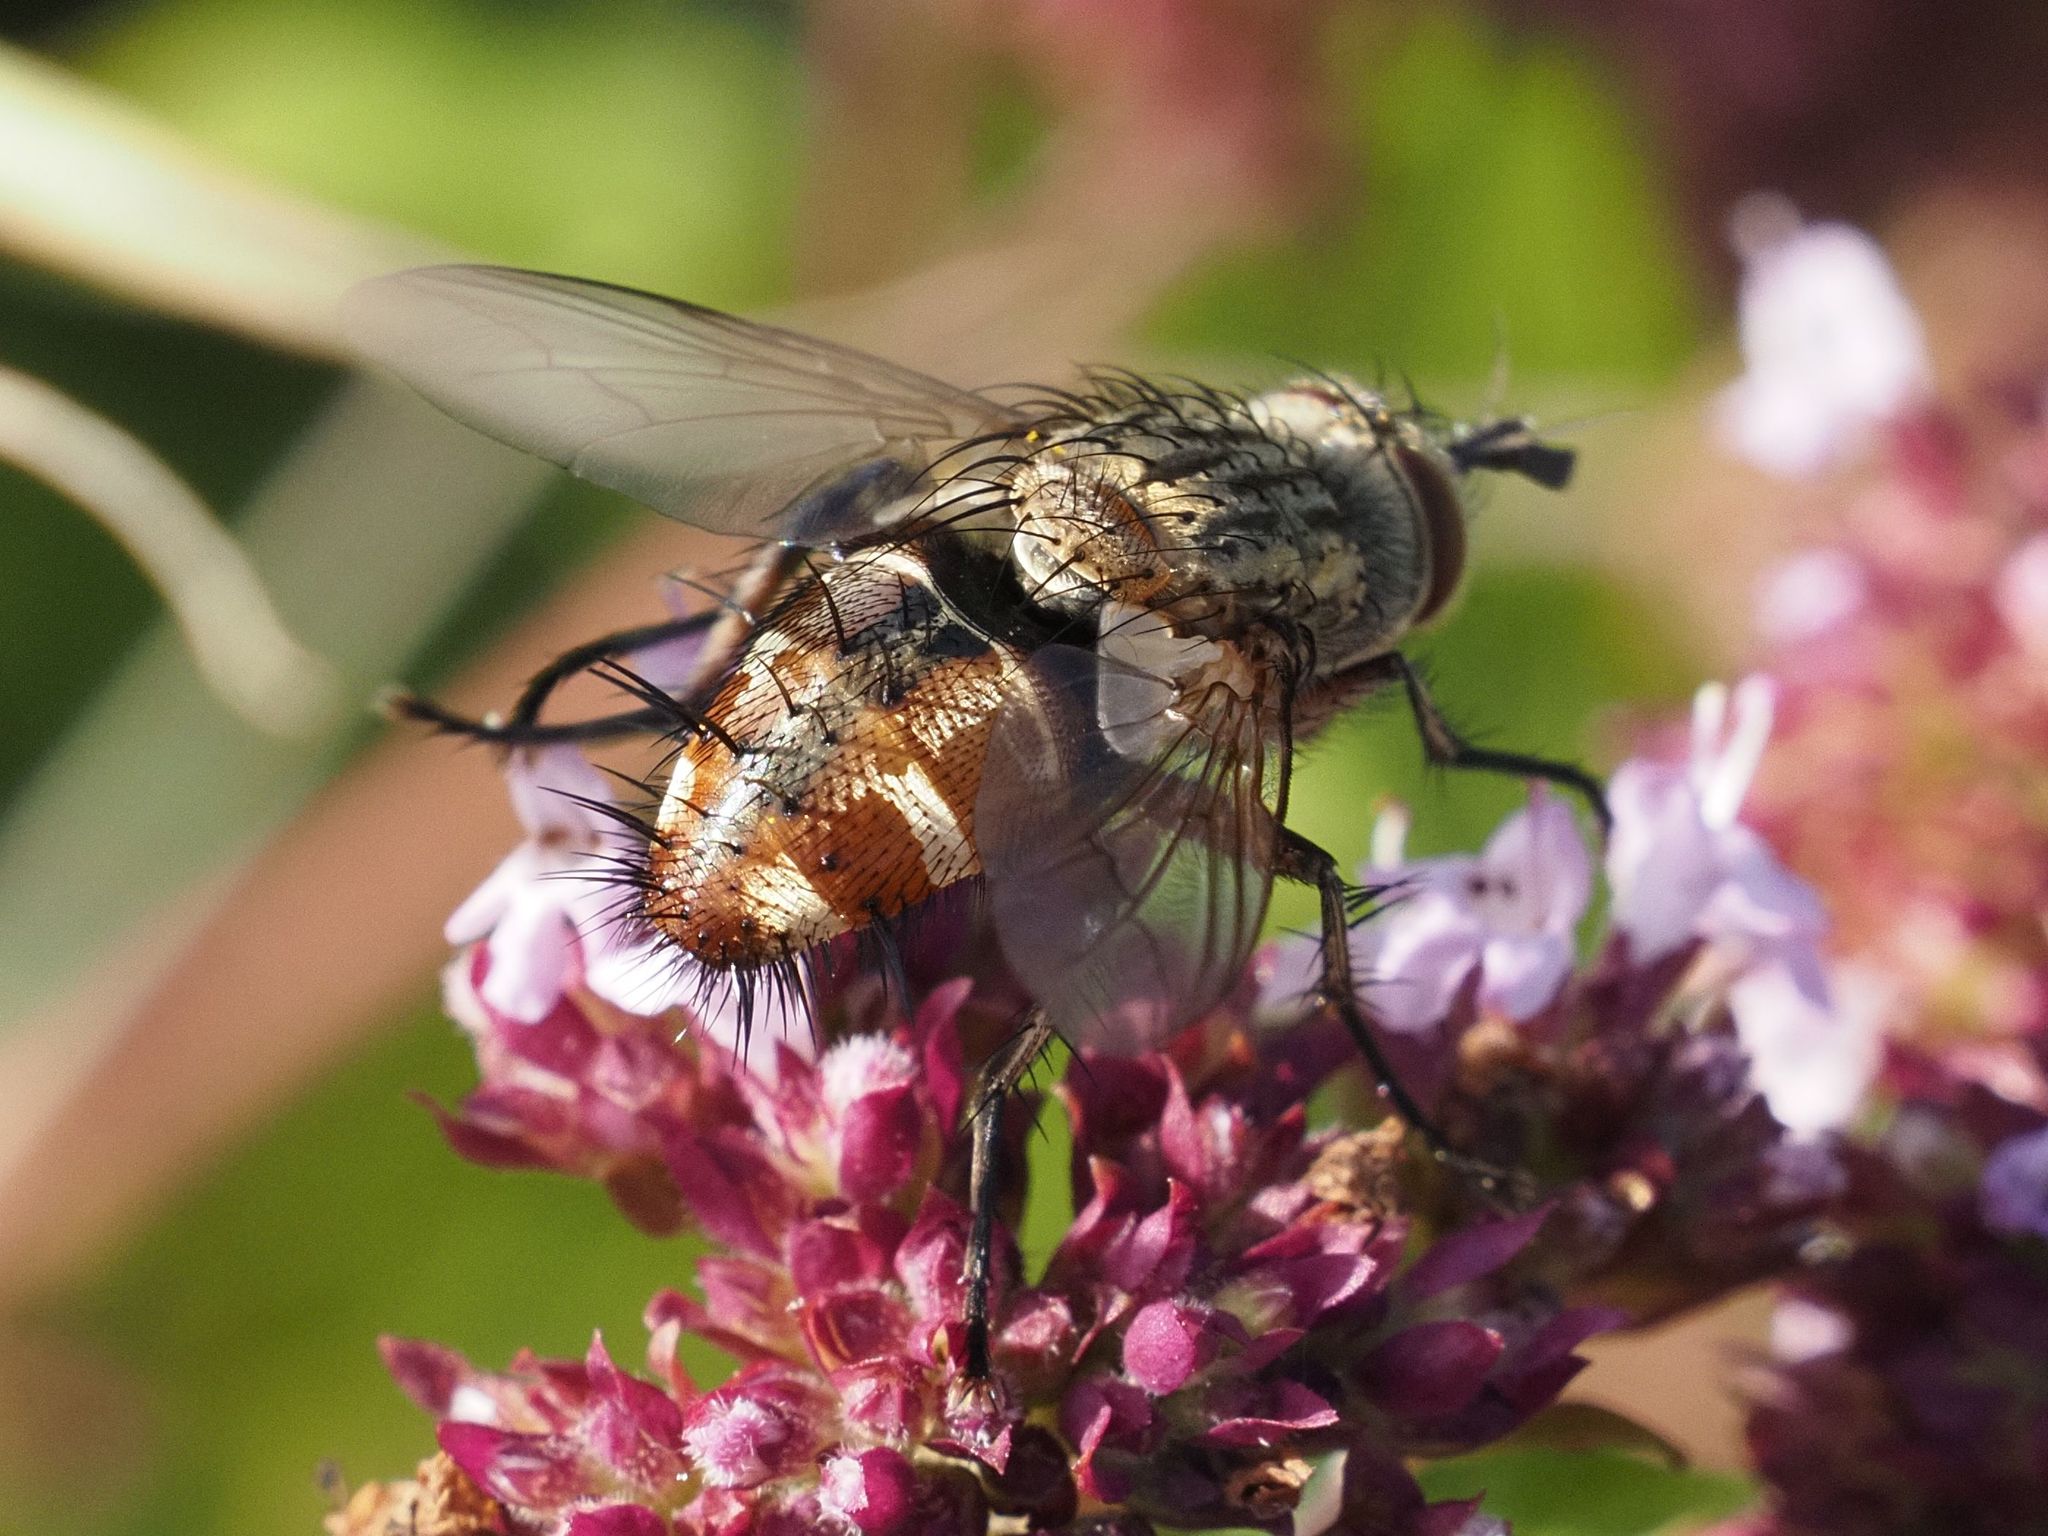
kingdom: Animalia
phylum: Arthropoda
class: Insecta
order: Diptera
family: Tachinidae
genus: Linnaemya
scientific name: Linnaemya vulpina
